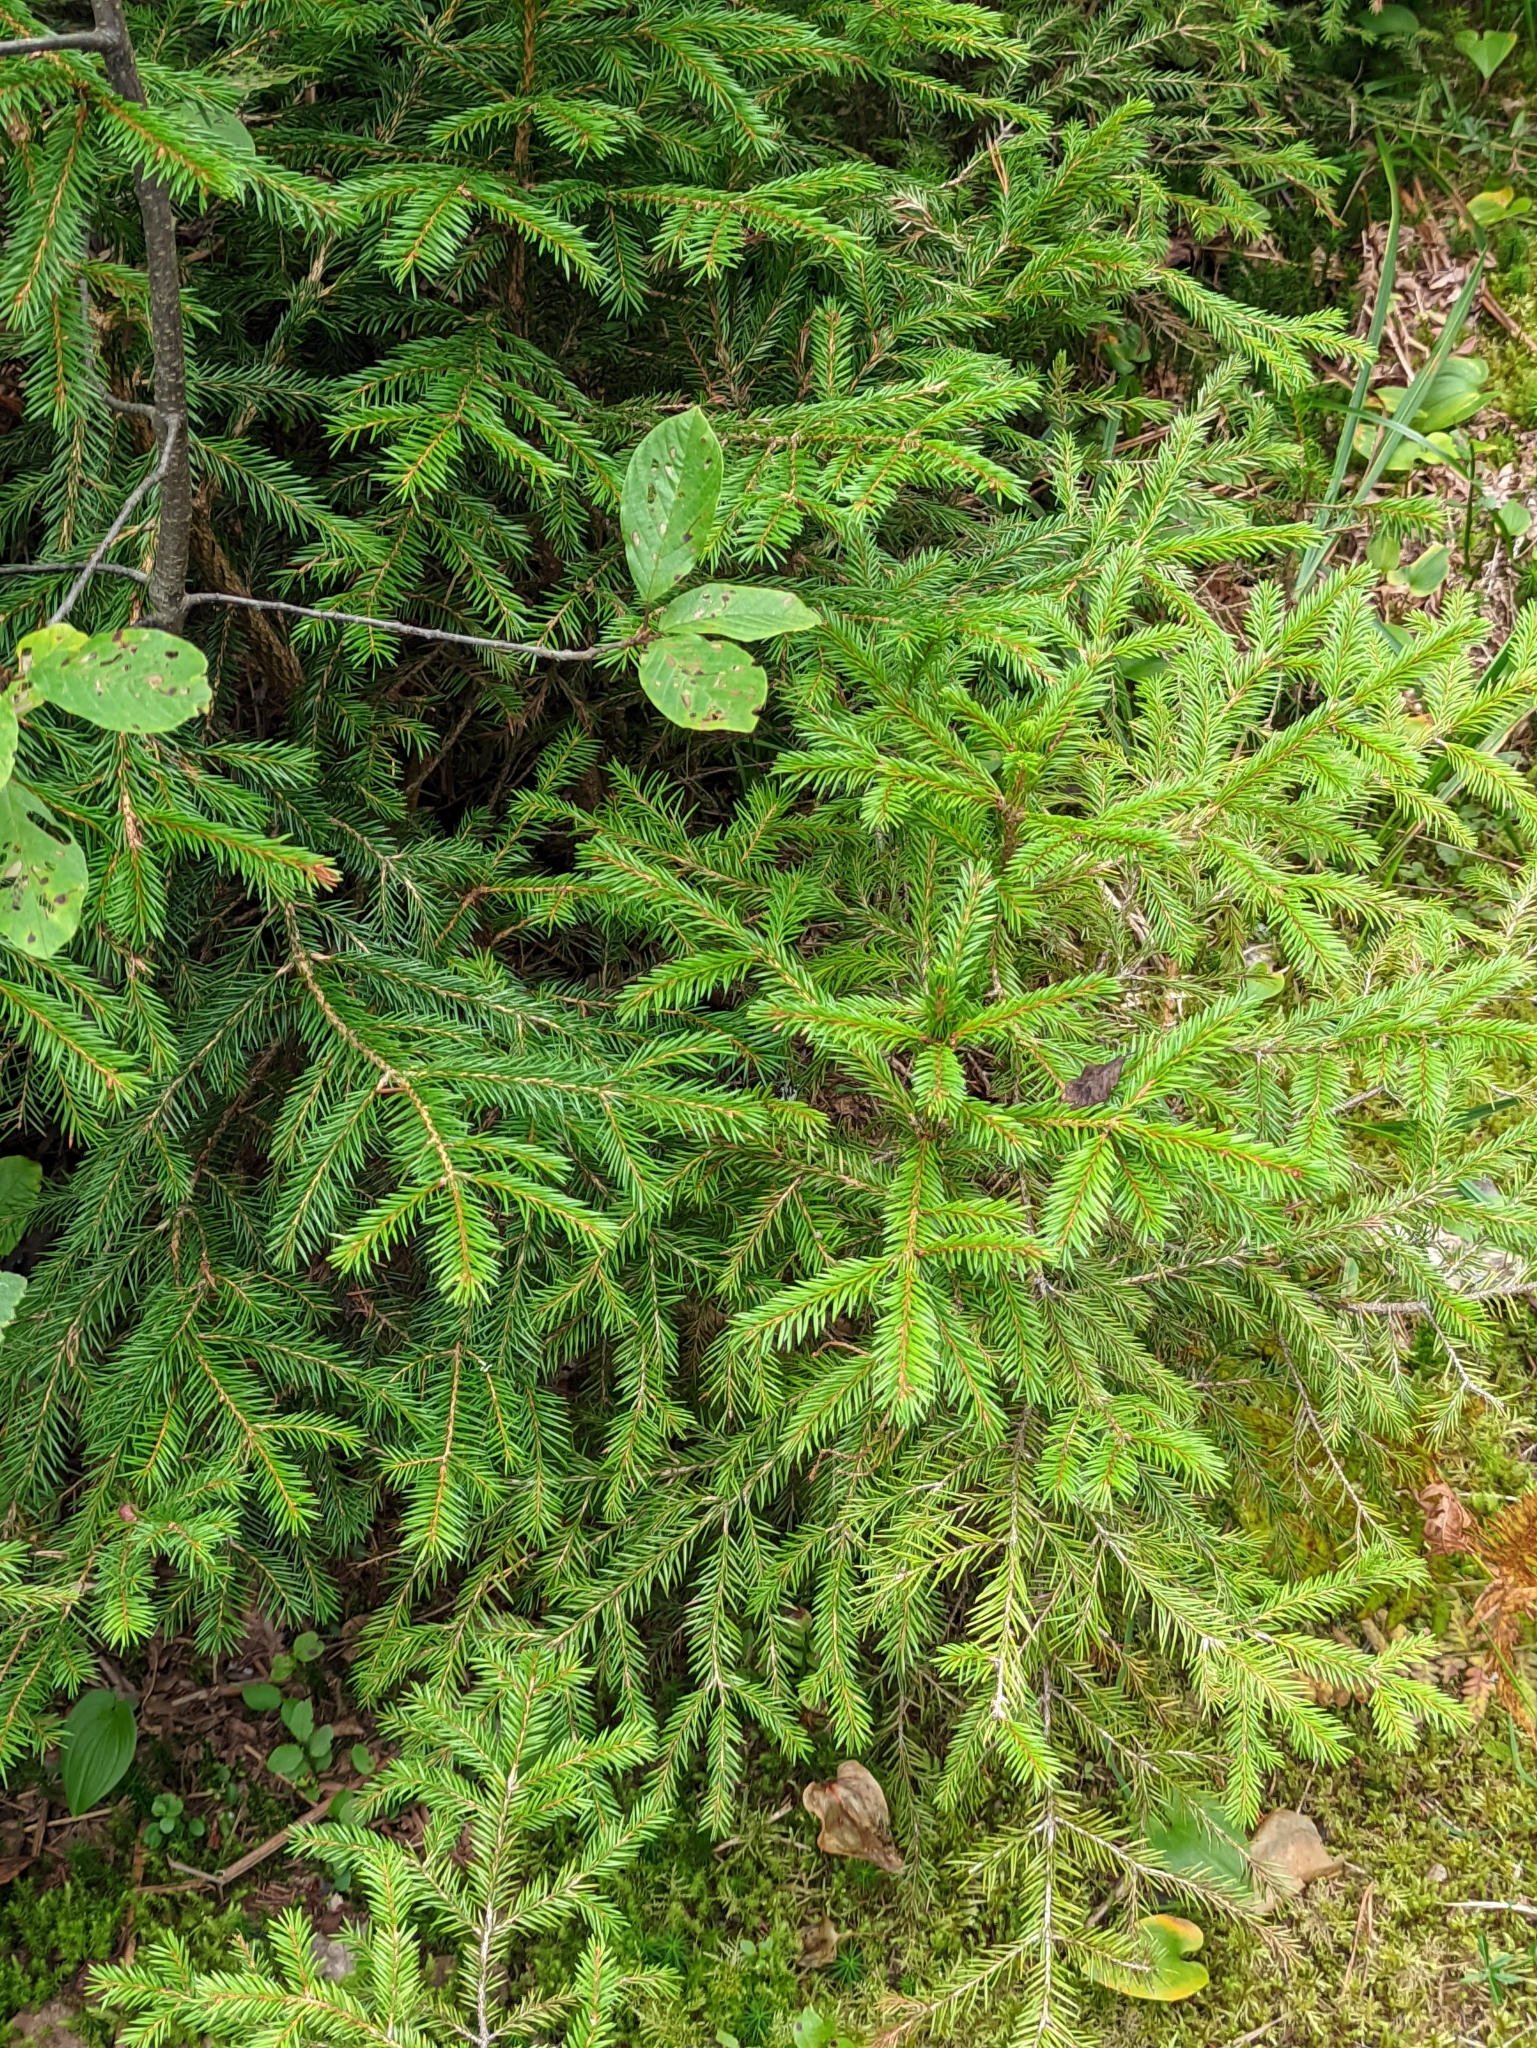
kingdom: Plantae
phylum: Tracheophyta
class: Pinopsida
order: Pinales
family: Pinaceae
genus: Picea
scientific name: Picea abies
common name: Norway spruce
